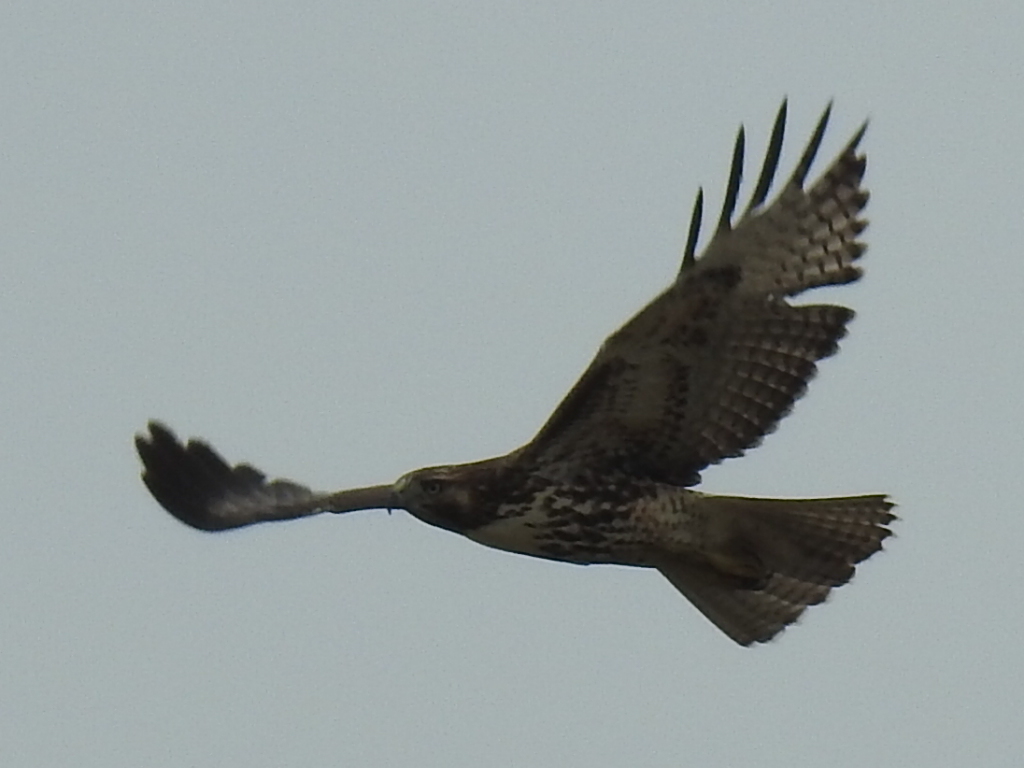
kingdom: Animalia
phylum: Chordata
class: Aves
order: Accipitriformes
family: Accipitridae
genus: Buteo
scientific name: Buteo jamaicensis
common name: Red-tailed hawk
